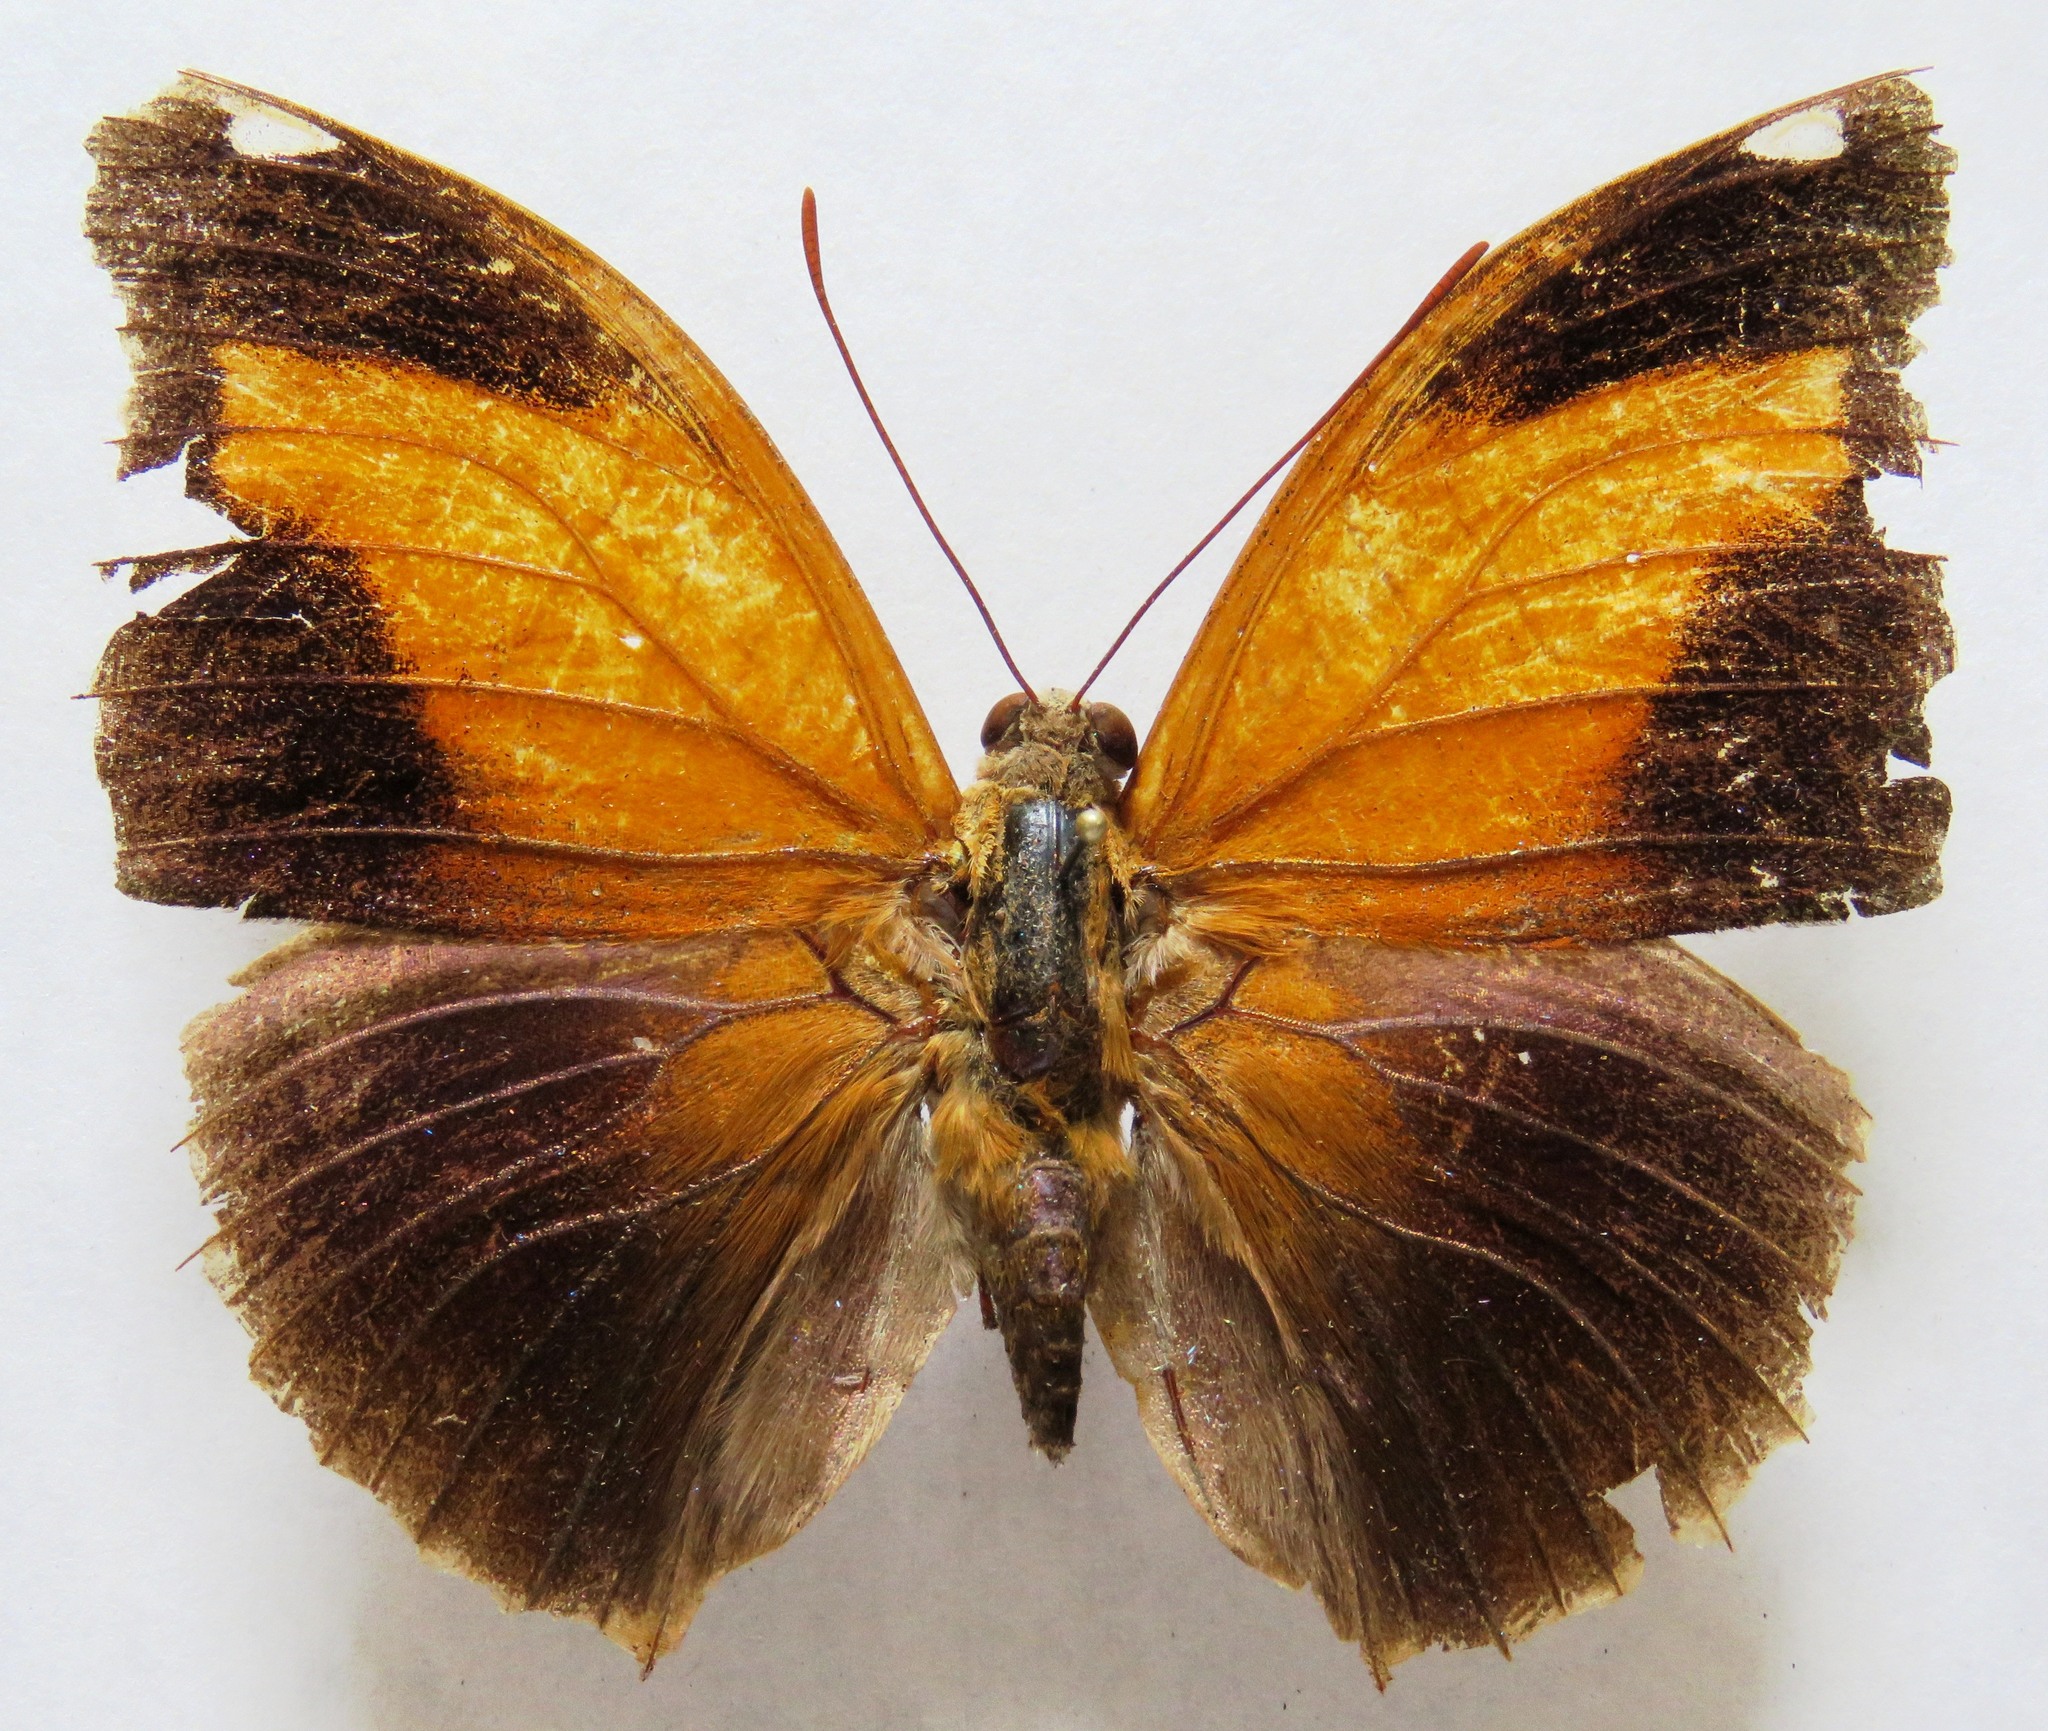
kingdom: Animalia
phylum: Arthropoda
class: Insecta
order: Lepidoptera
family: Nymphalidae
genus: Historis
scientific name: Historis odius
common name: Orion cecropian
